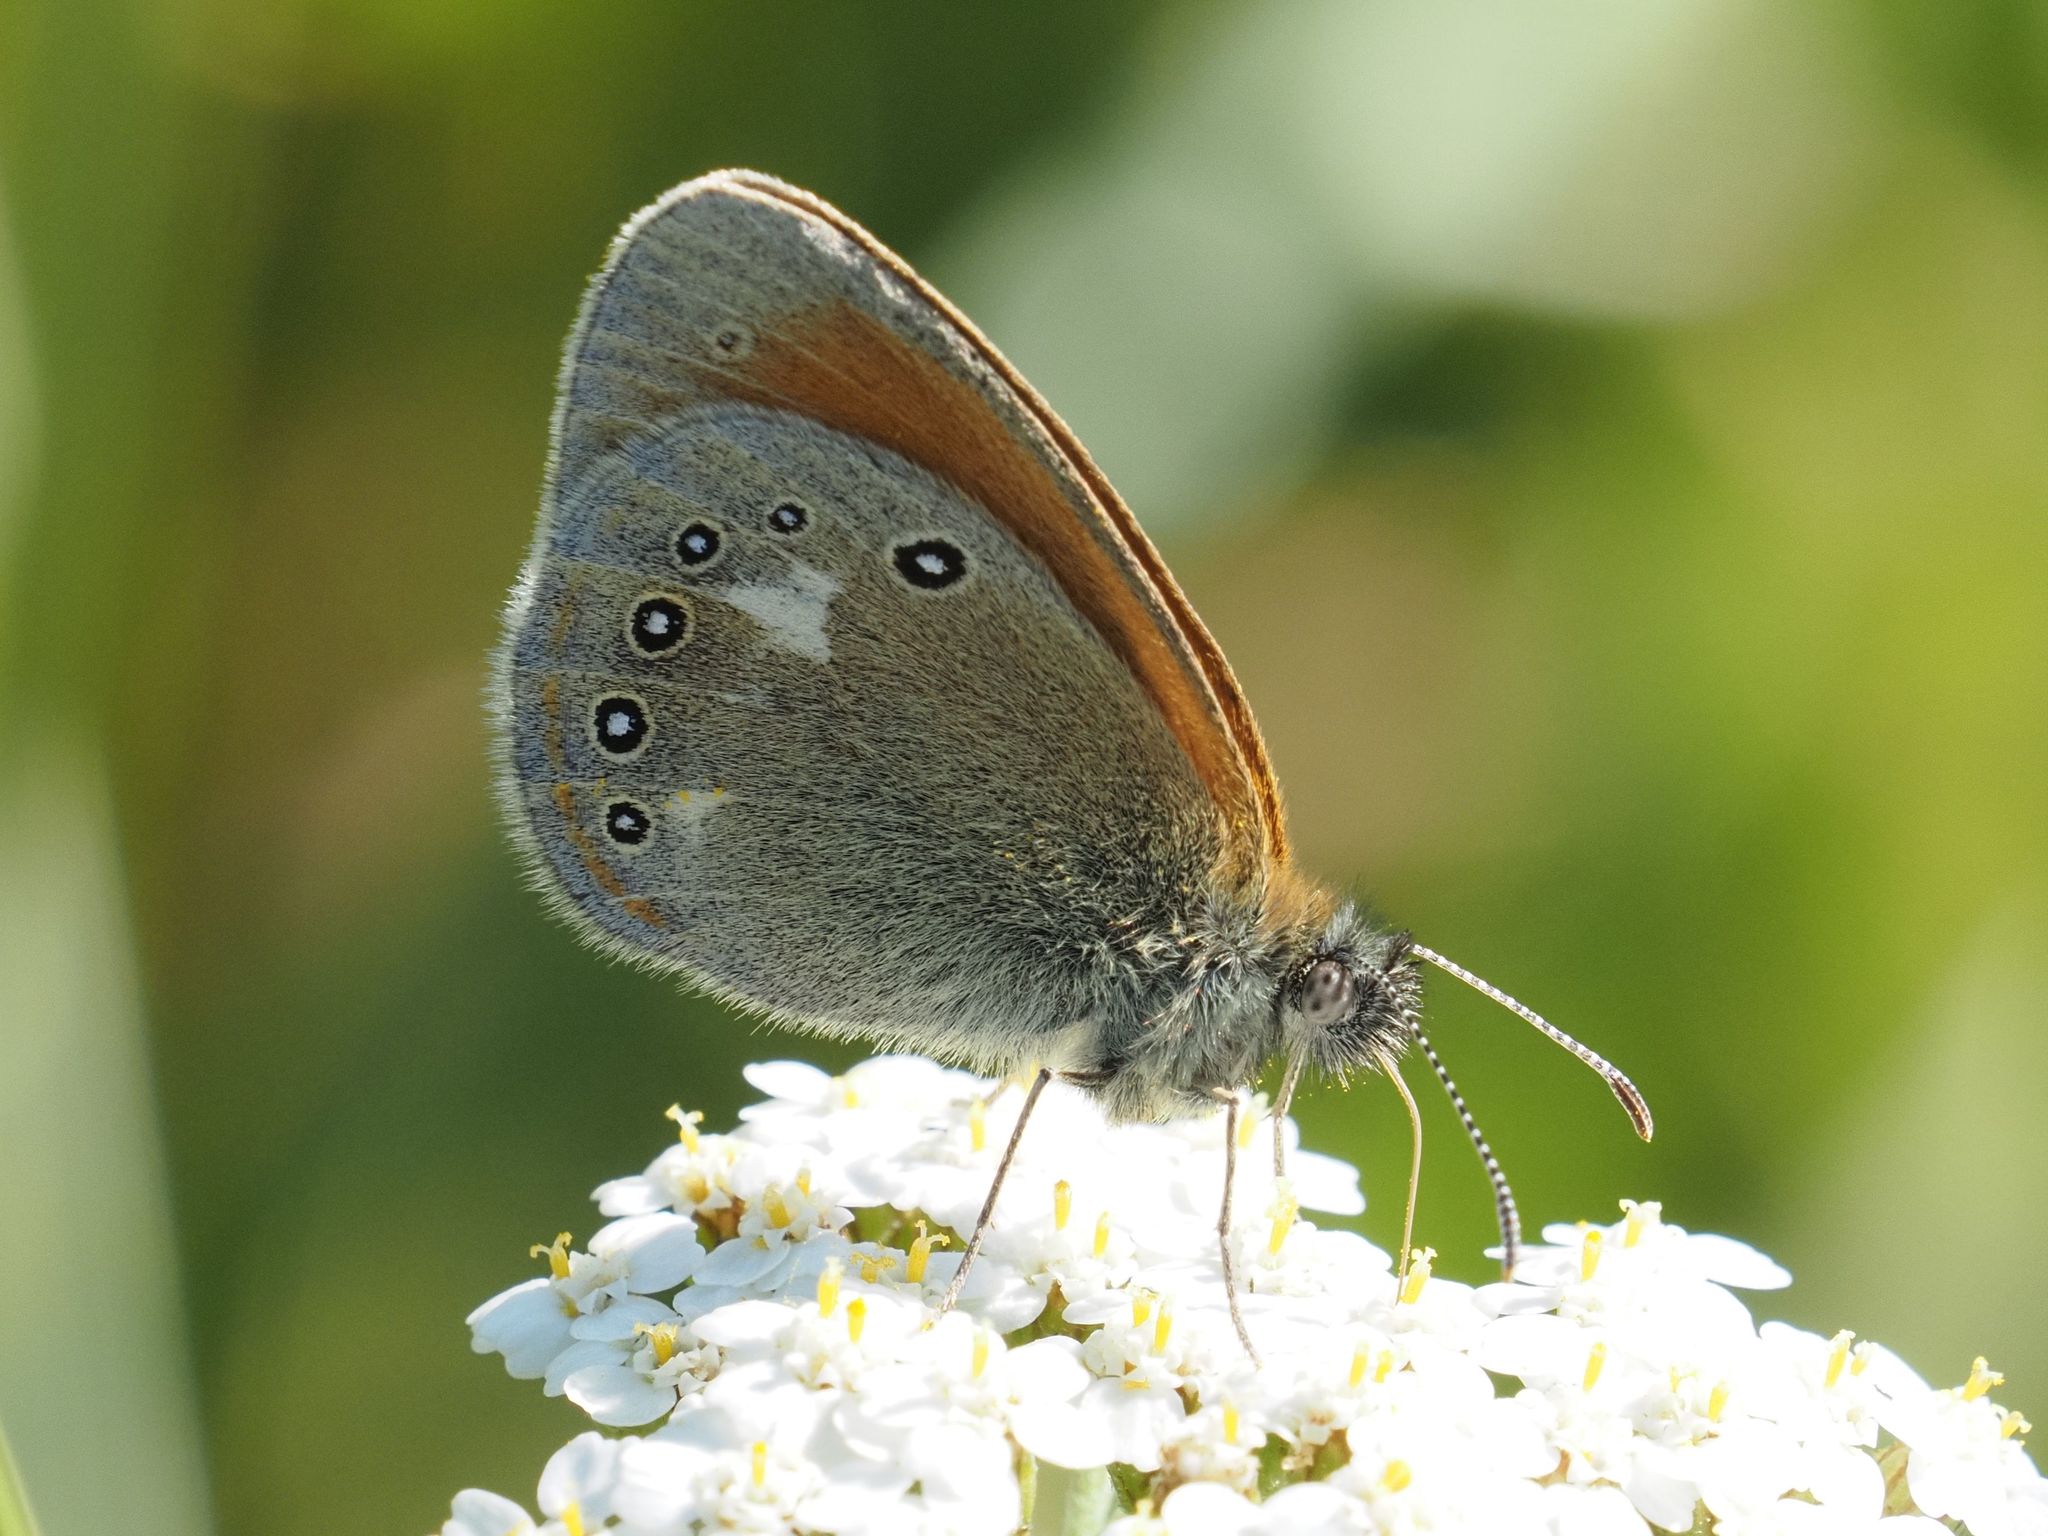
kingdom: Animalia
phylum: Arthropoda
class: Insecta
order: Lepidoptera
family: Nymphalidae
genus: Coenonympha
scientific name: Coenonympha iphis
